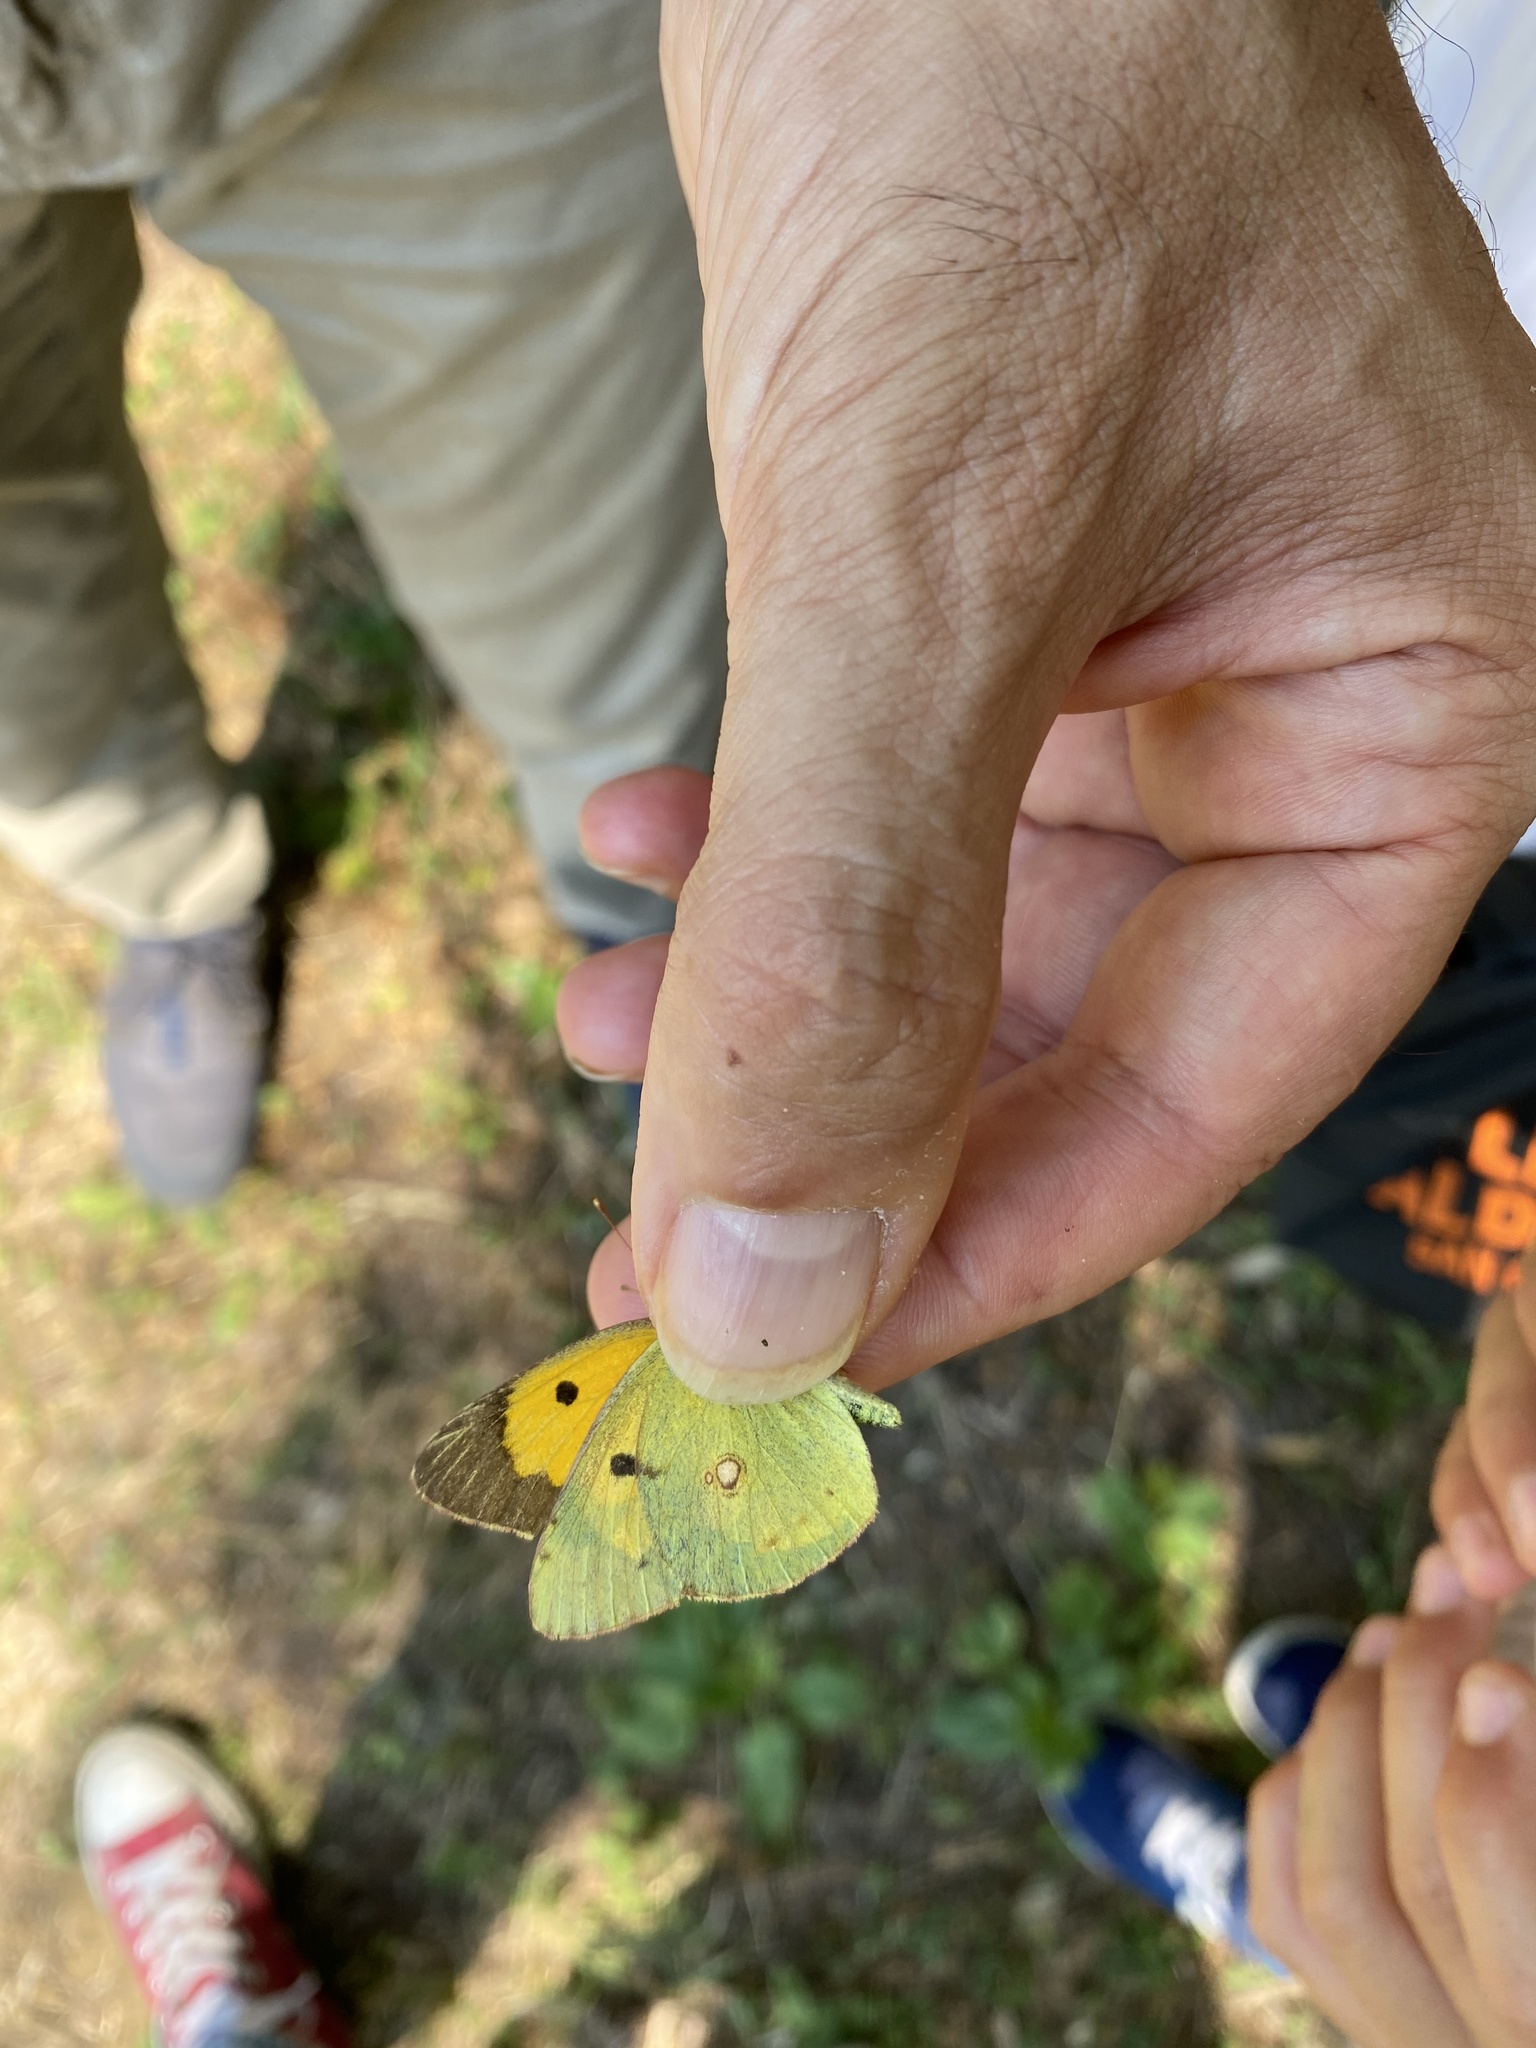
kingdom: Animalia
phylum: Arthropoda
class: Insecta
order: Lepidoptera
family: Pieridae
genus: Colias
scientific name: Colias croceus
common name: Clouded yellow
